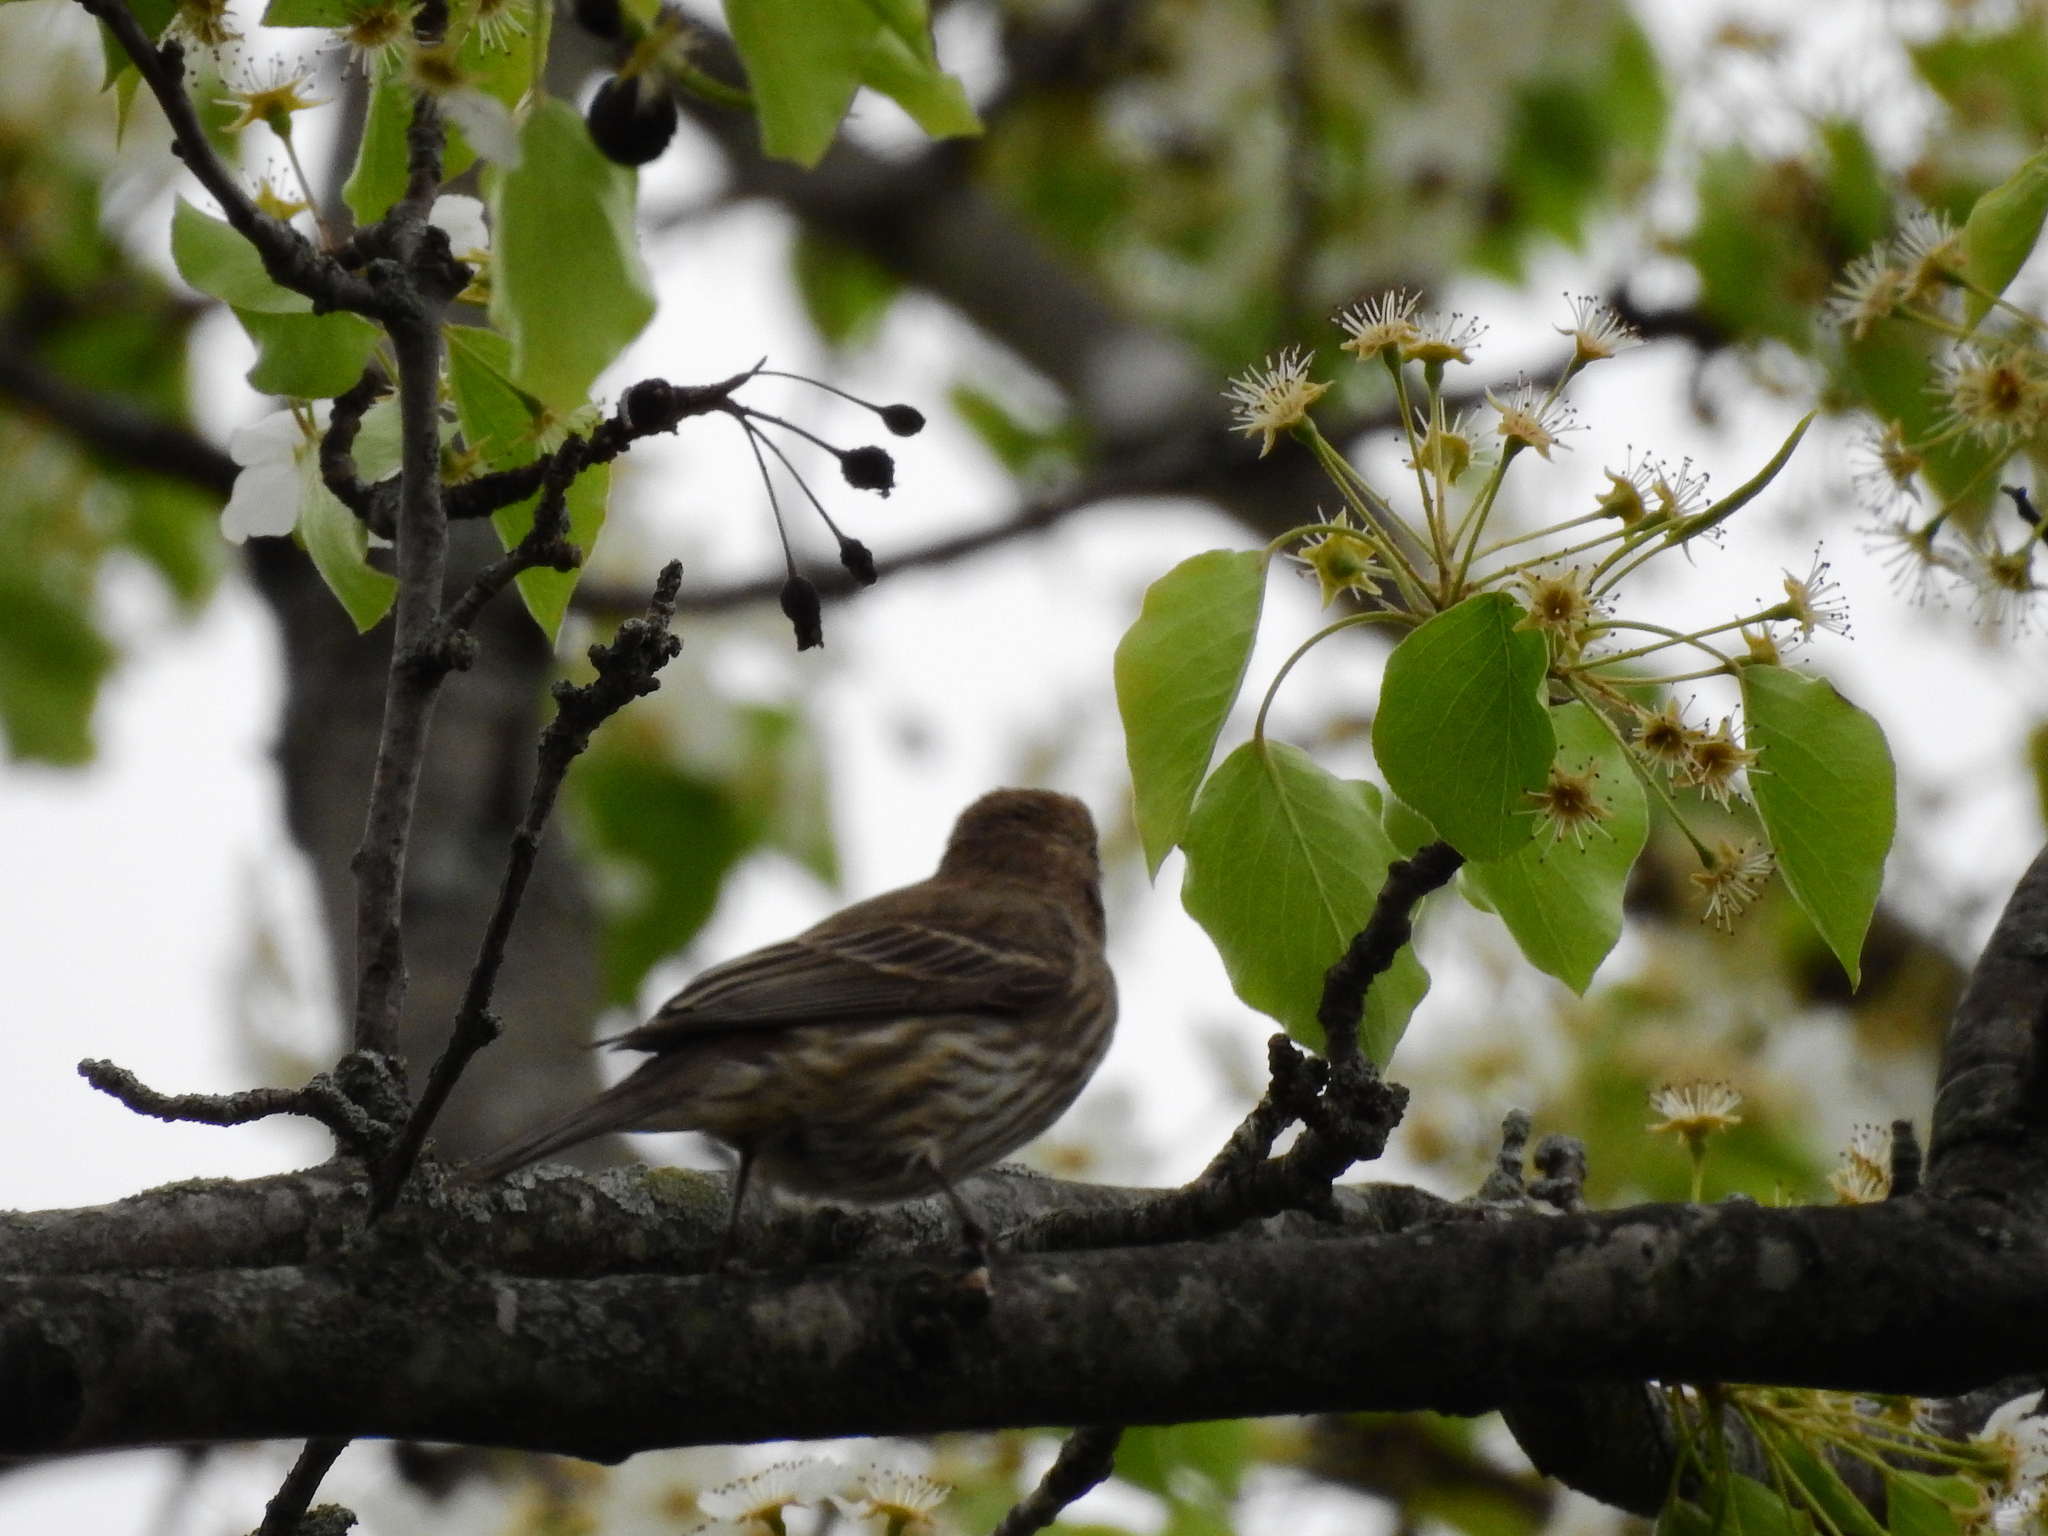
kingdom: Animalia
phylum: Chordata
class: Aves
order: Passeriformes
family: Fringillidae
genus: Haemorhous
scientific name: Haemorhous mexicanus
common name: House finch
